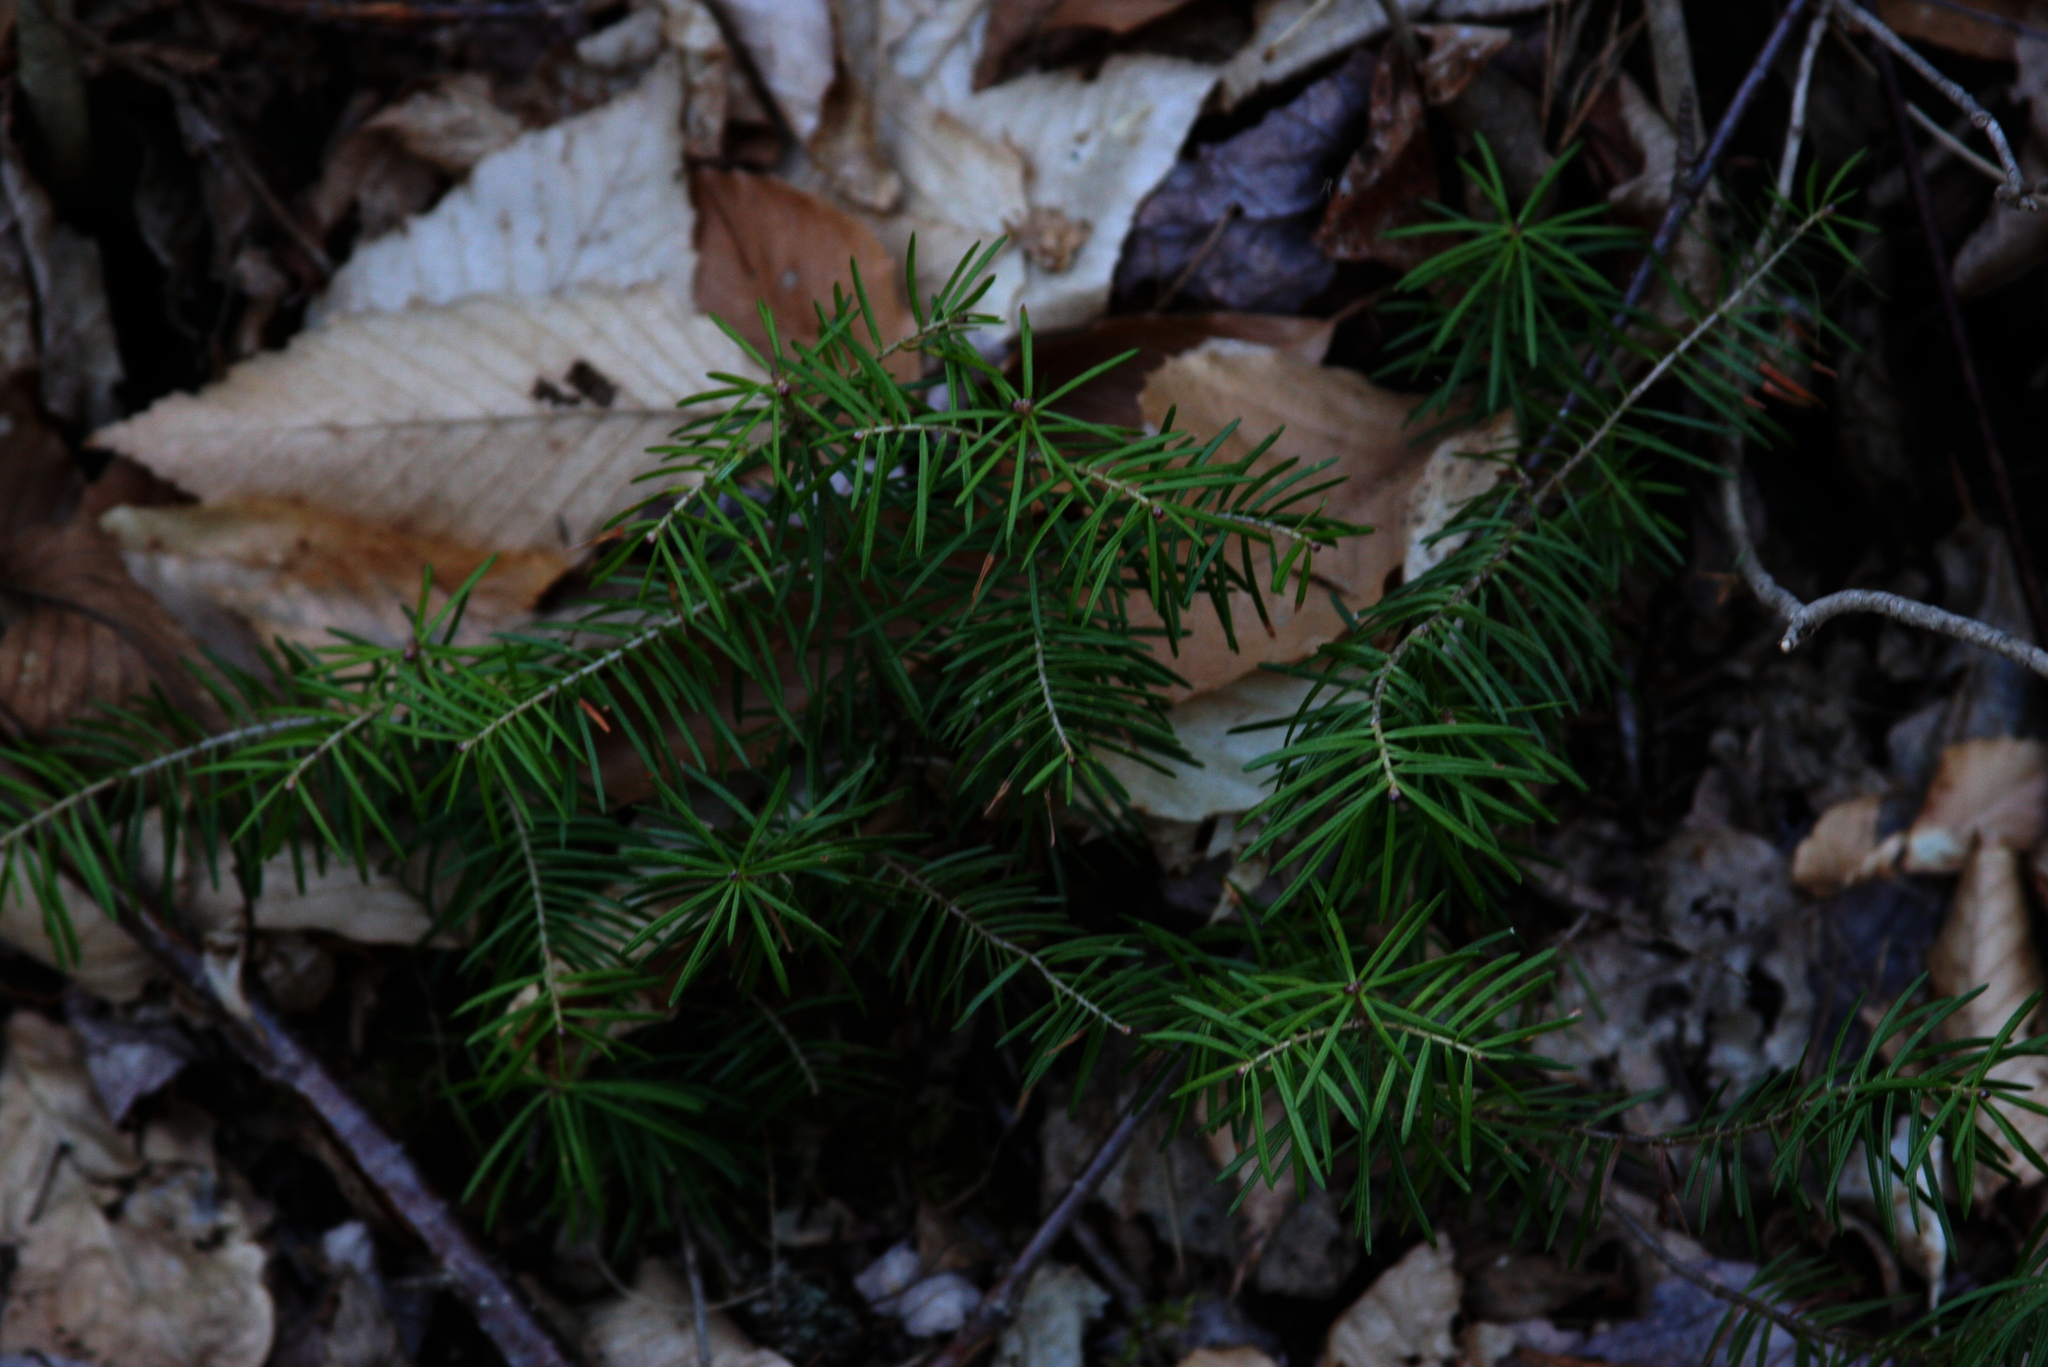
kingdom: Plantae
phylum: Tracheophyta
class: Pinopsida
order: Pinales
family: Pinaceae
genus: Abies
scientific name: Abies balsamea
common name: Balsam fir
